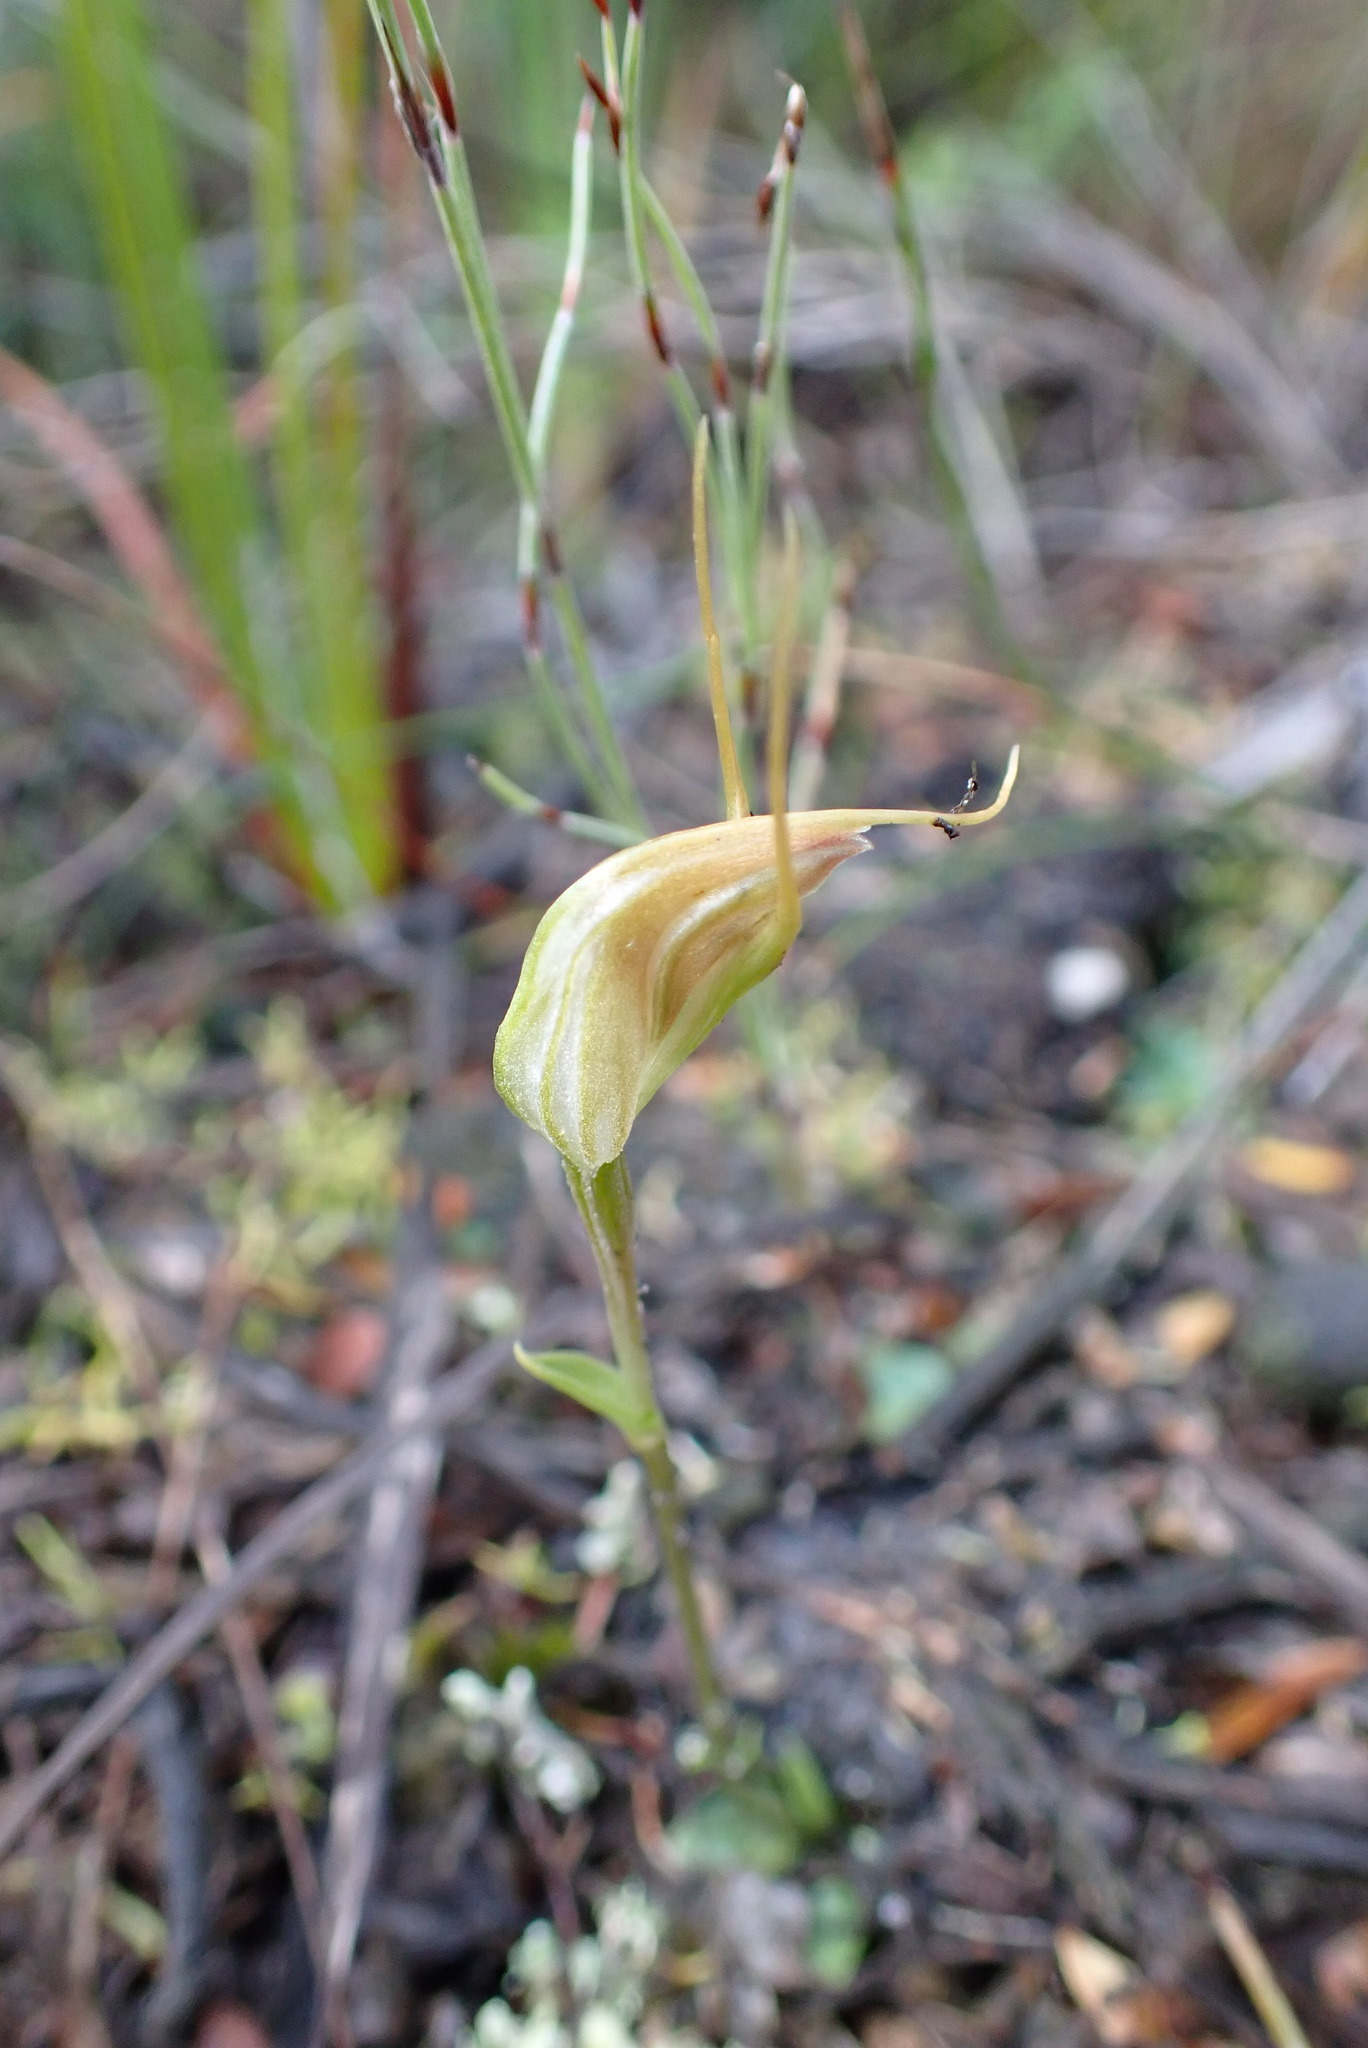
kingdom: Plantae
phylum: Tracheophyta
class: Liliopsida
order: Asparagales
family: Orchidaceae
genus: Pterostylis
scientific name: Pterostylis pedoglossa
